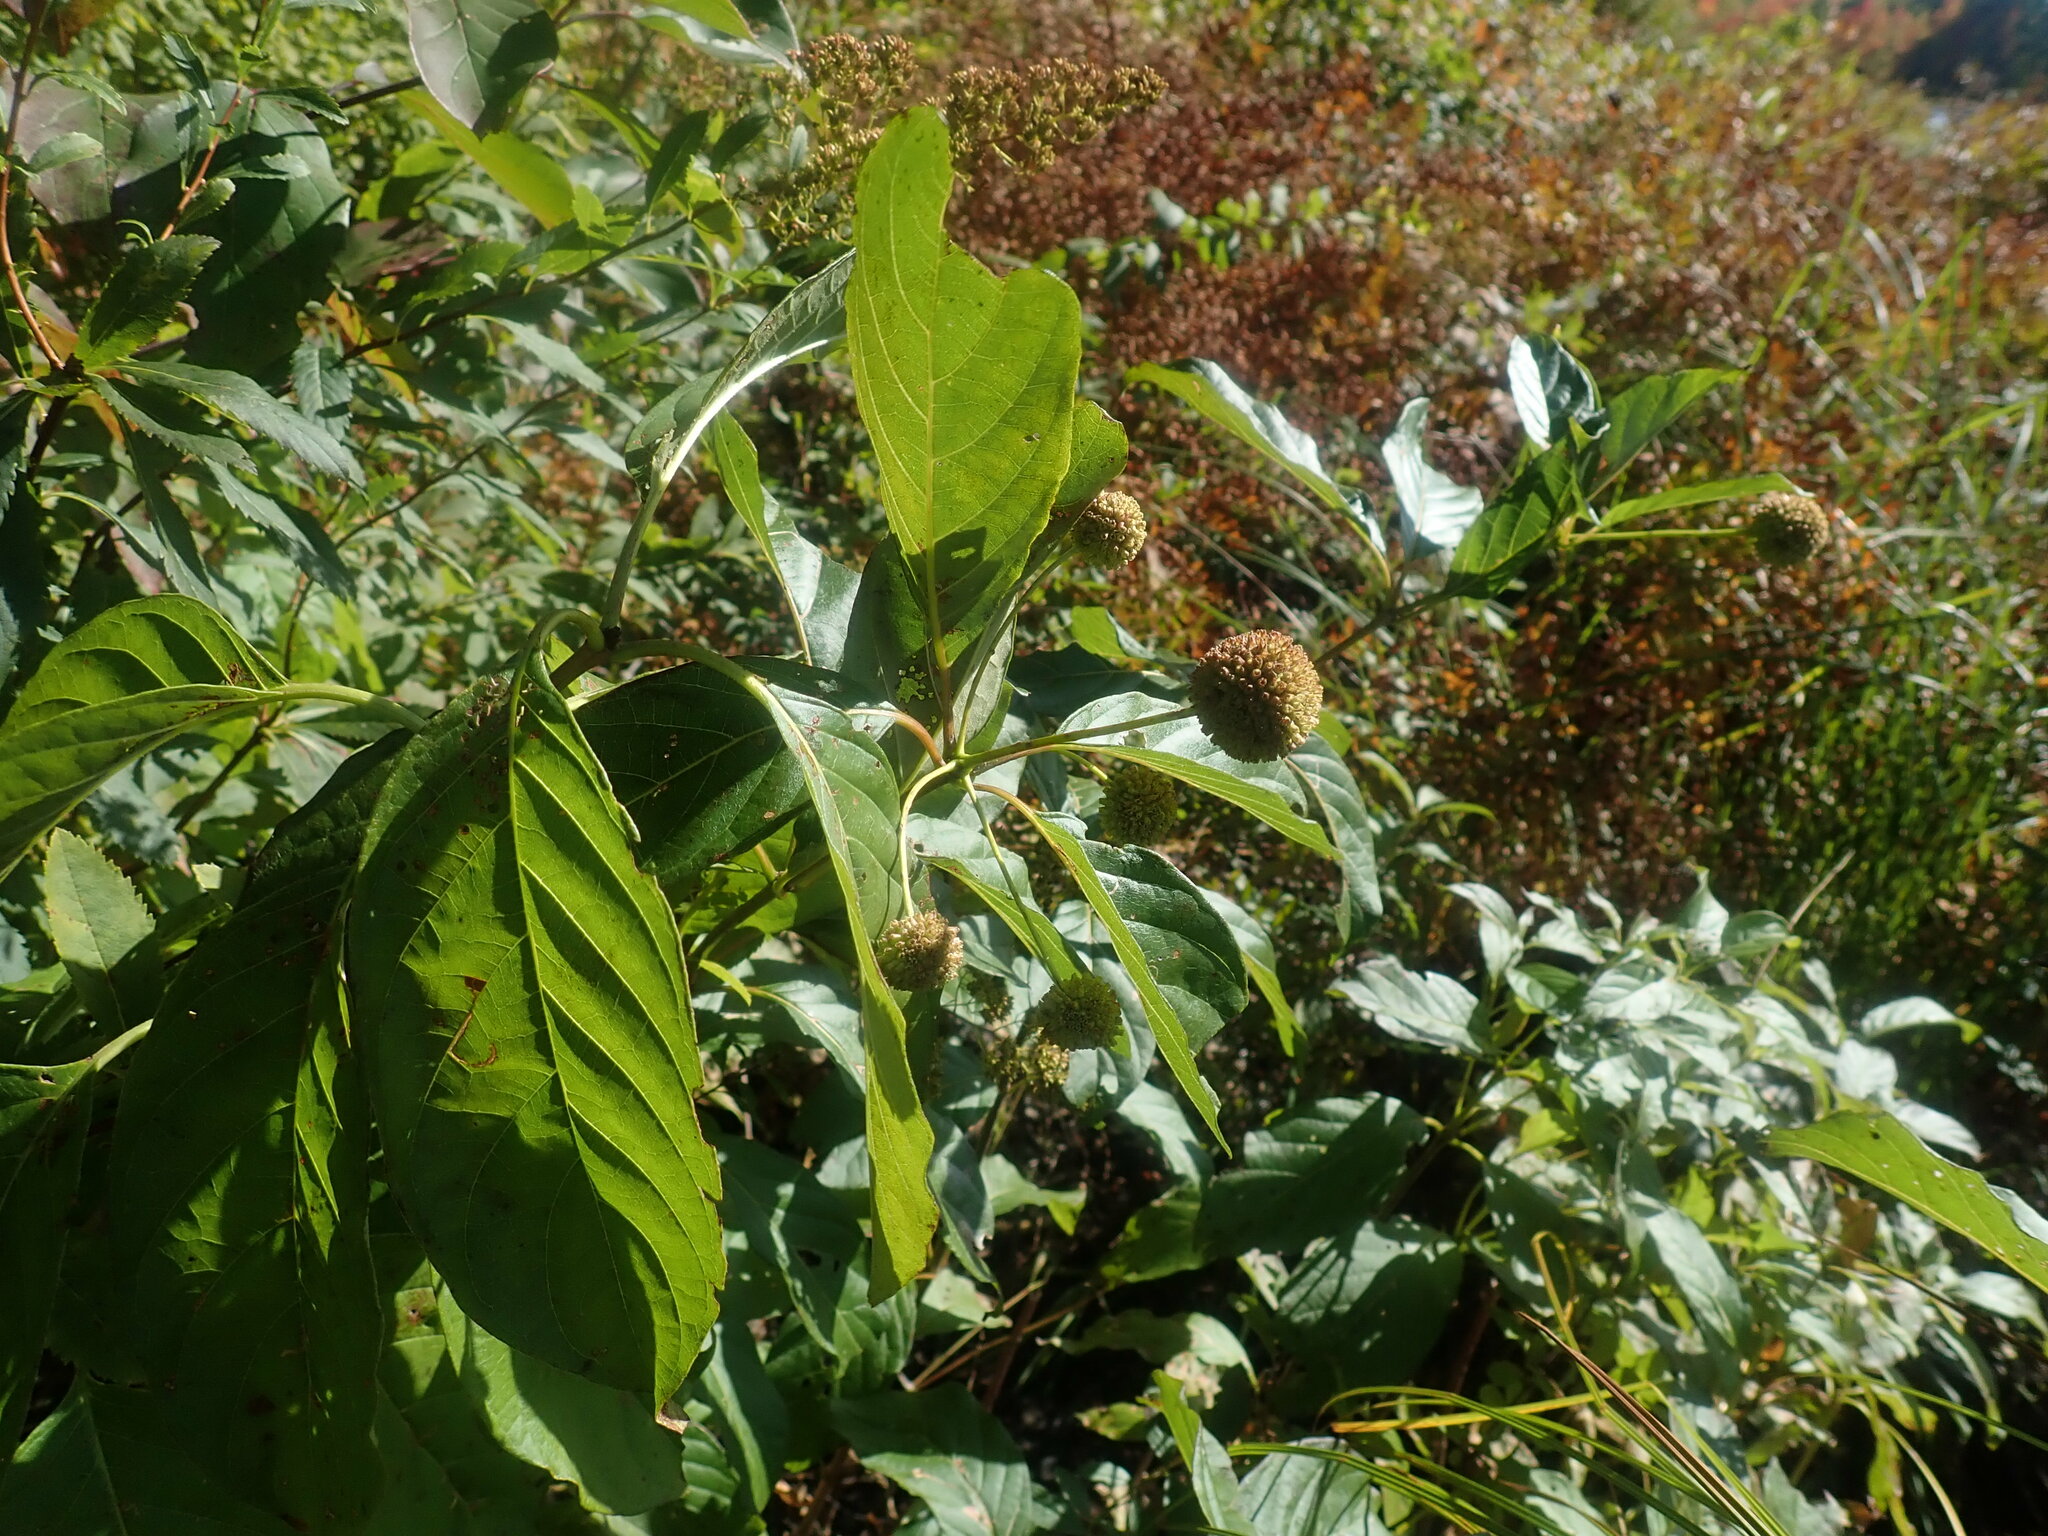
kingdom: Plantae
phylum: Tracheophyta
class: Magnoliopsida
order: Gentianales
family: Rubiaceae
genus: Cephalanthus
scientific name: Cephalanthus occidentalis
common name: Button-willow
